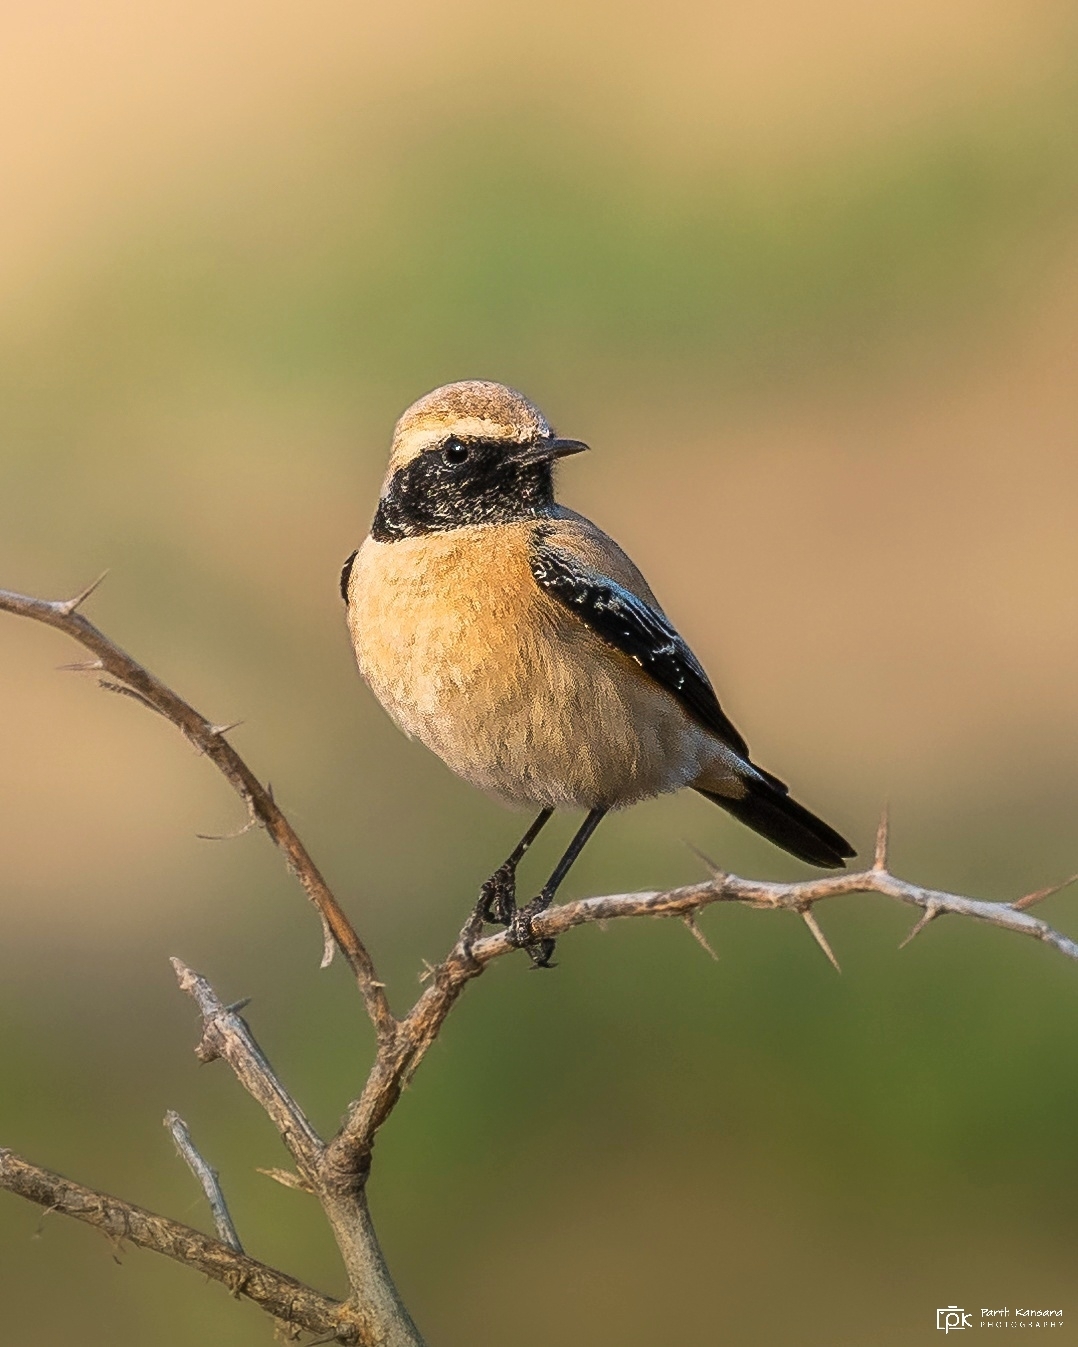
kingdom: Animalia
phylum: Chordata
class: Aves
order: Passeriformes
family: Muscicapidae
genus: Oenanthe
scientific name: Oenanthe deserti
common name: Desert wheatear
